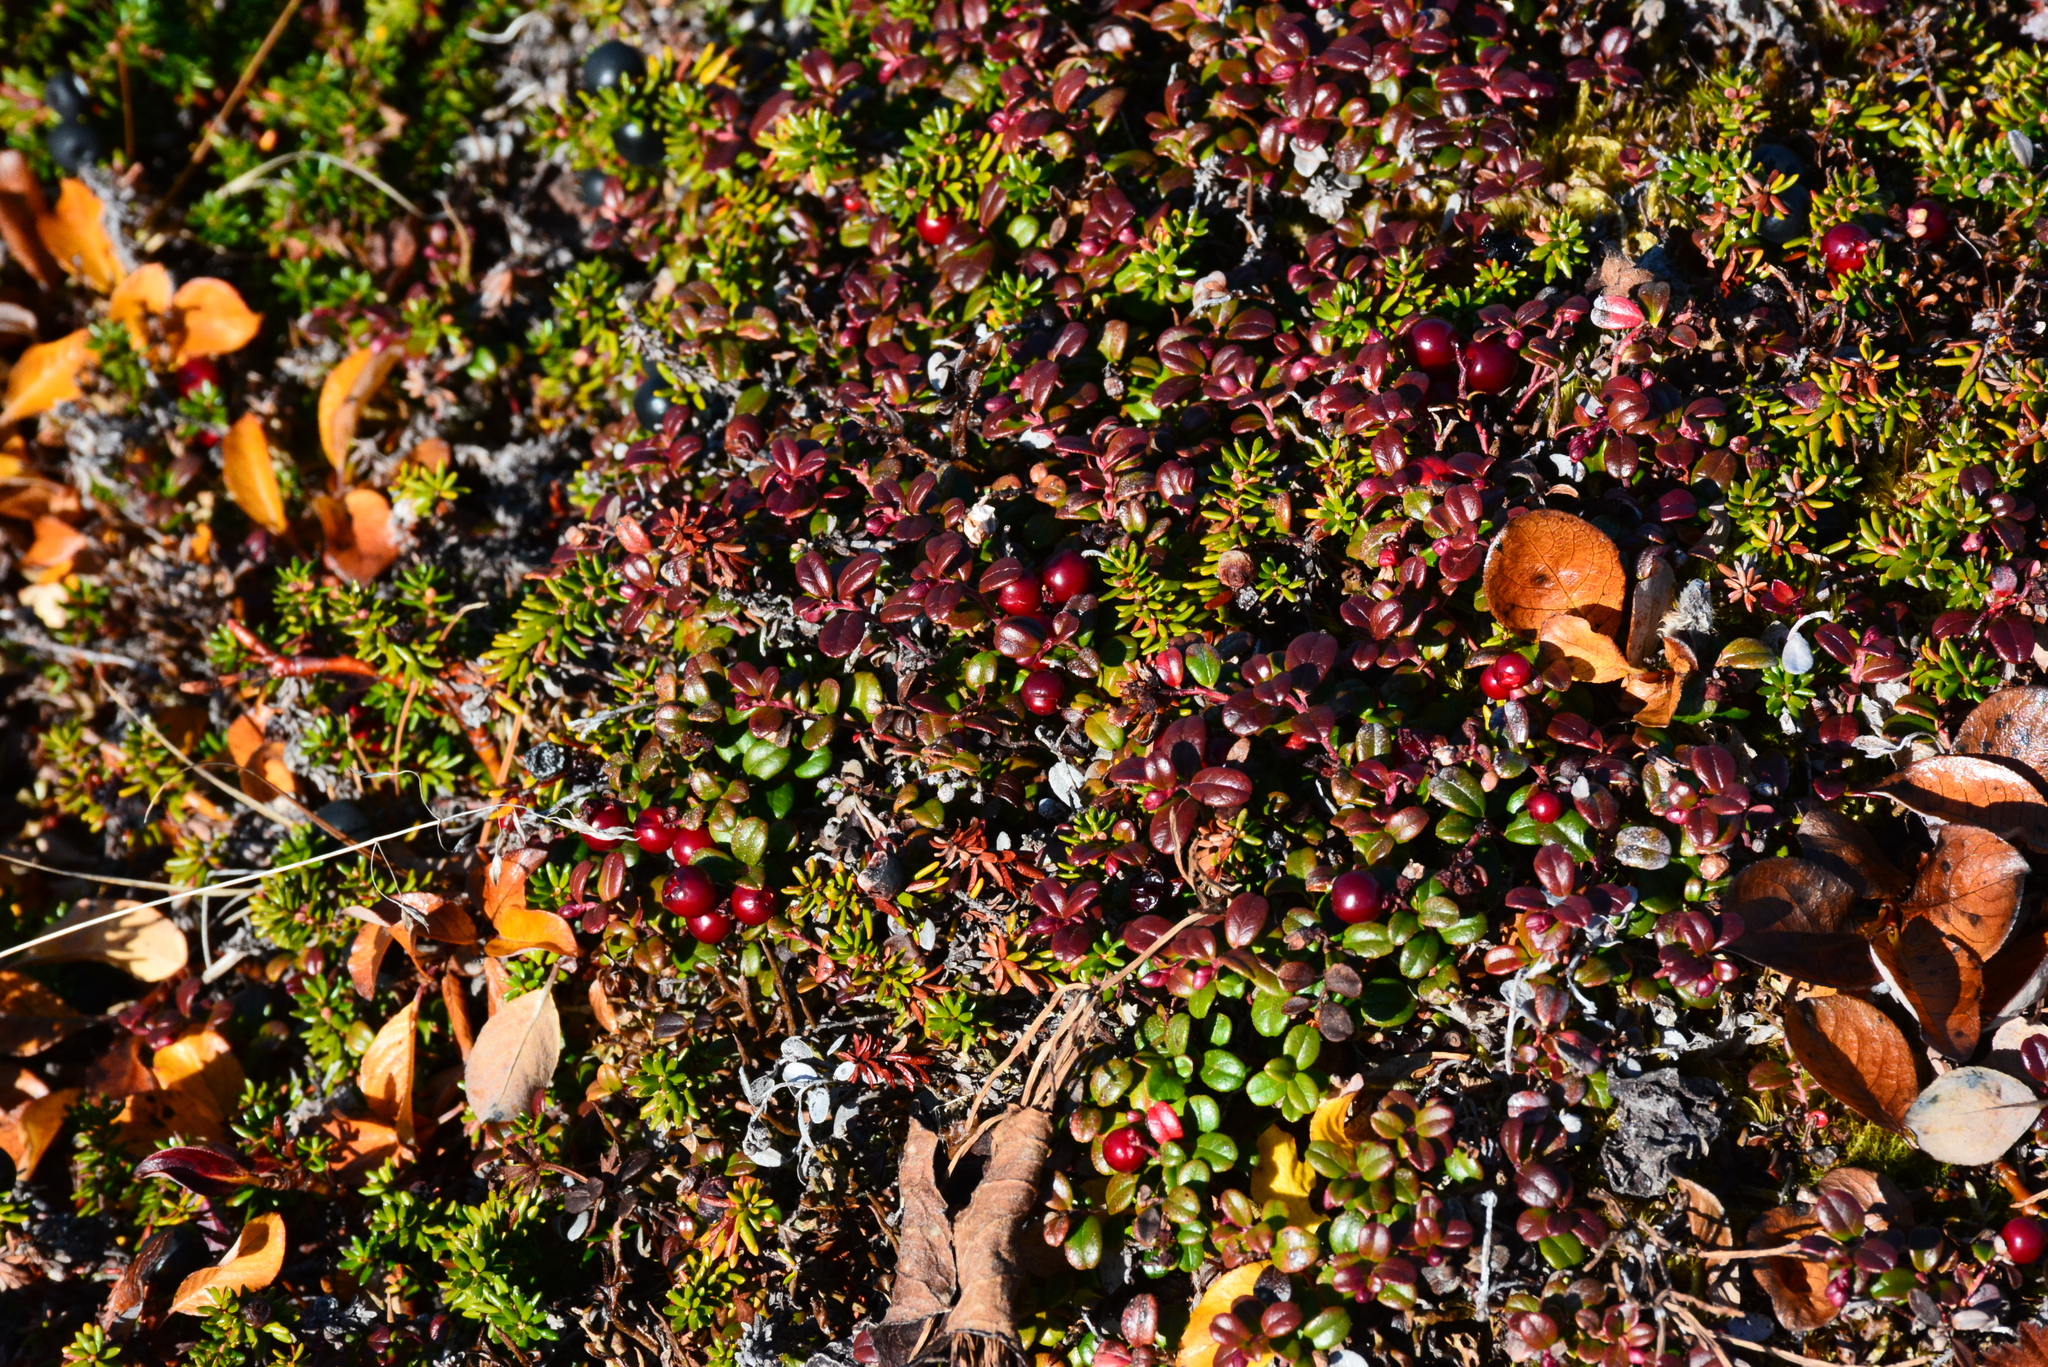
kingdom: Plantae
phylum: Tracheophyta
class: Magnoliopsida
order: Ericales
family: Ericaceae
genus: Vaccinium
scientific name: Vaccinium vitis-idaea
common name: Cowberry
